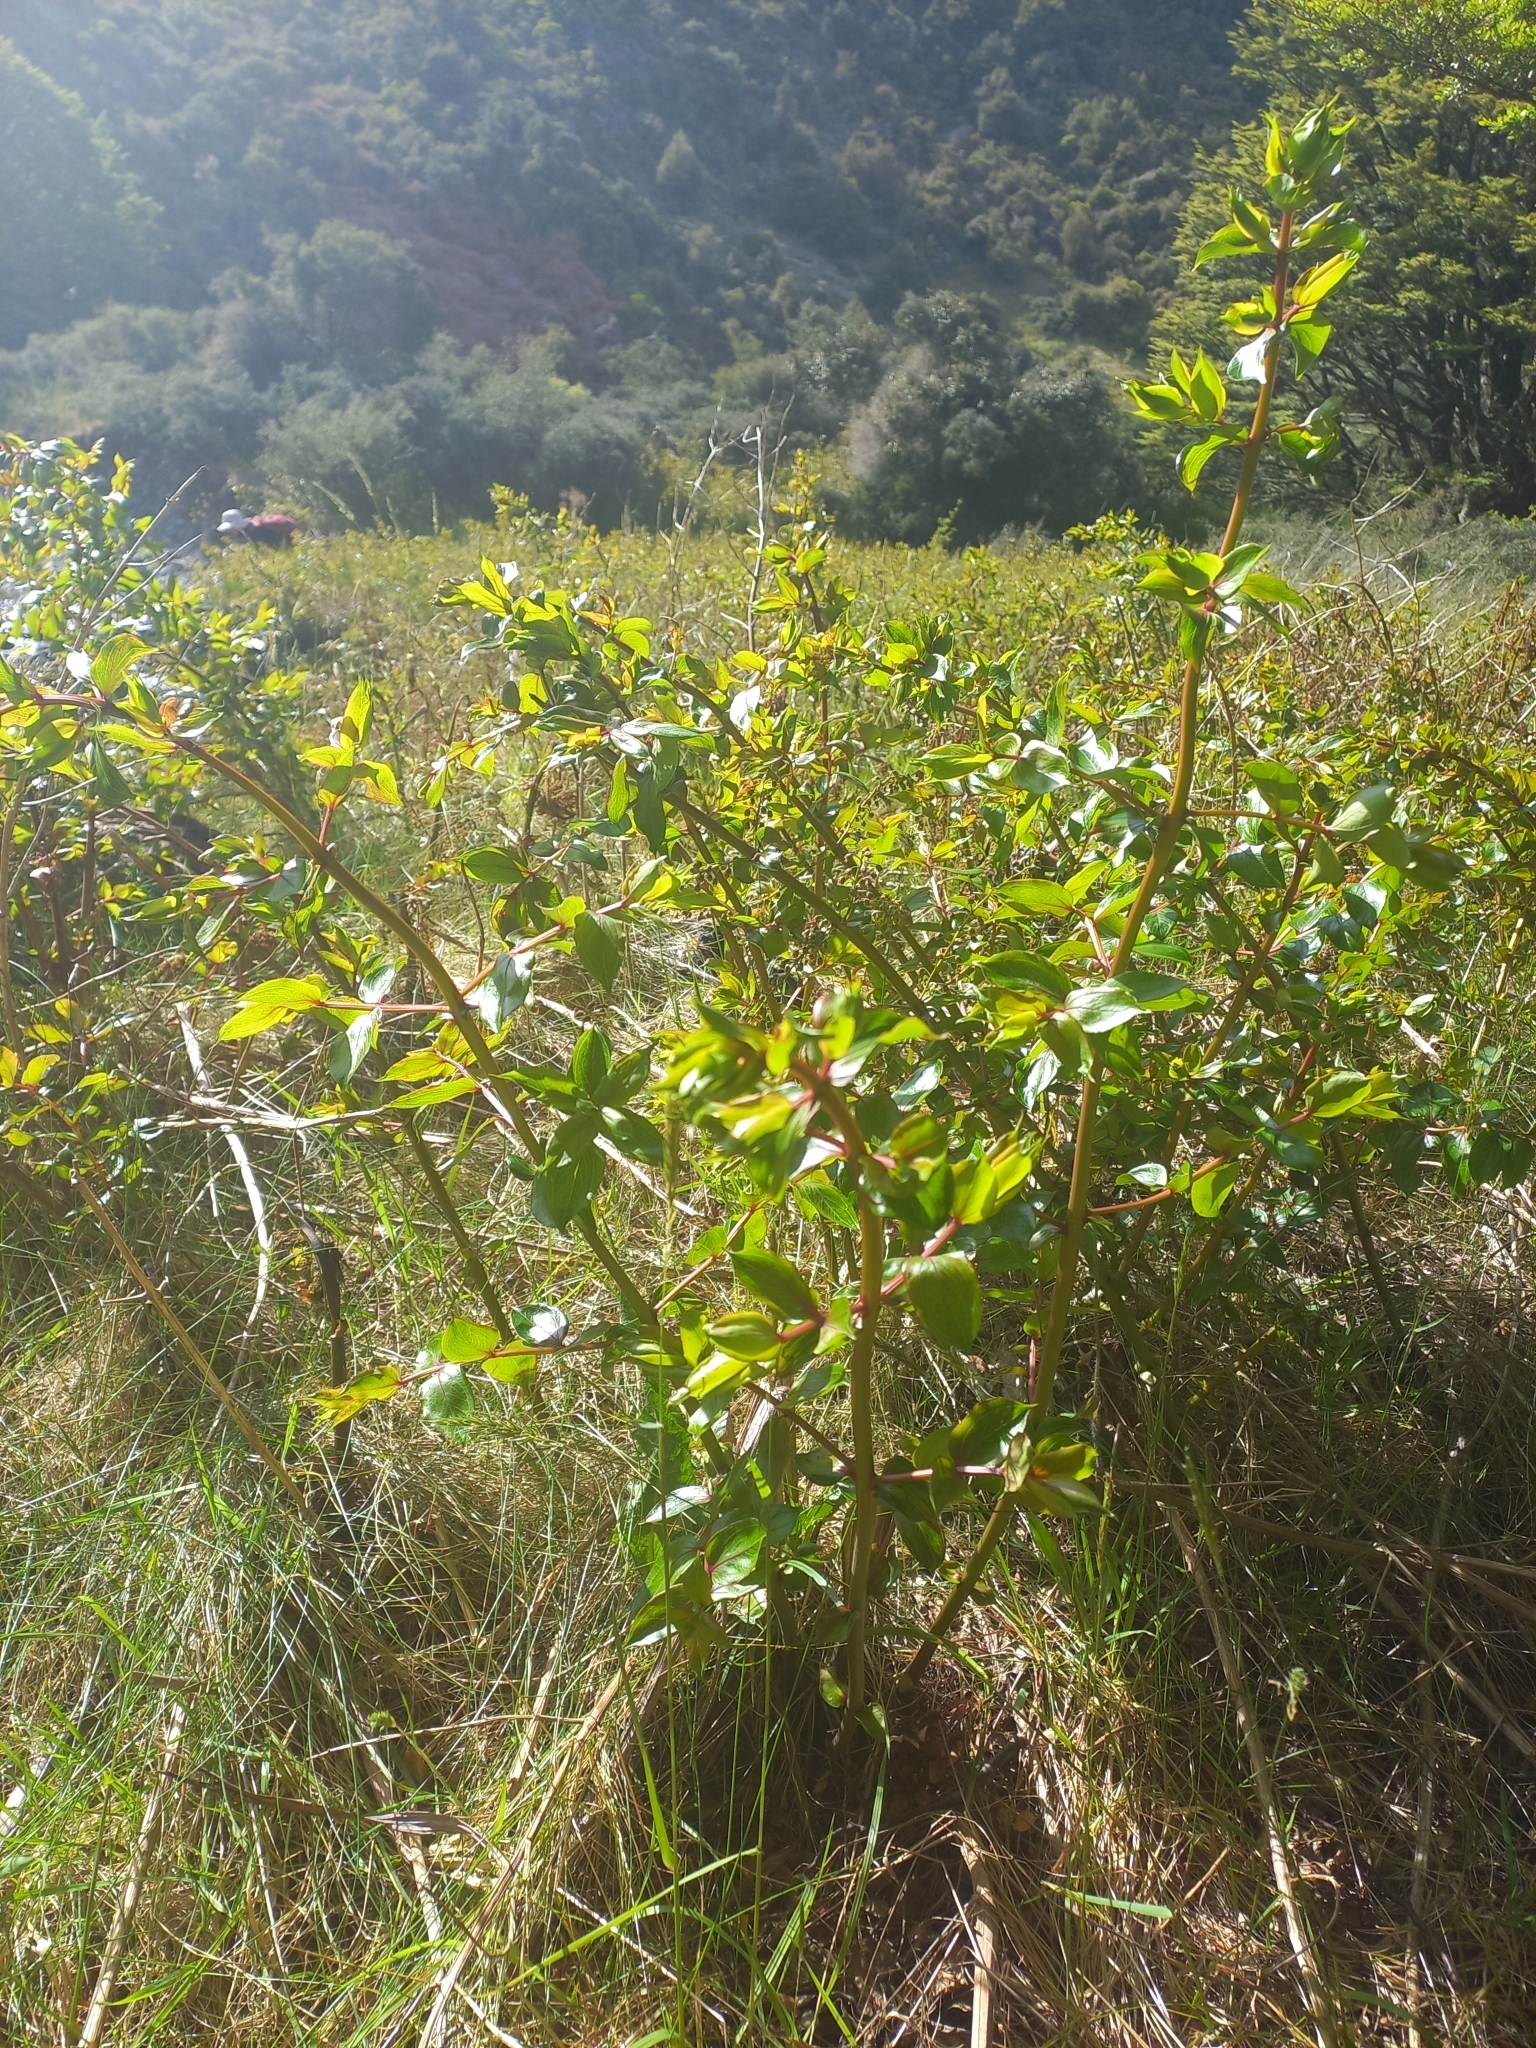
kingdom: Plantae
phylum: Tracheophyta
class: Magnoliopsida
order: Cucurbitales
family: Coriariaceae
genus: Coriaria
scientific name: Coriaria sarmentosa
